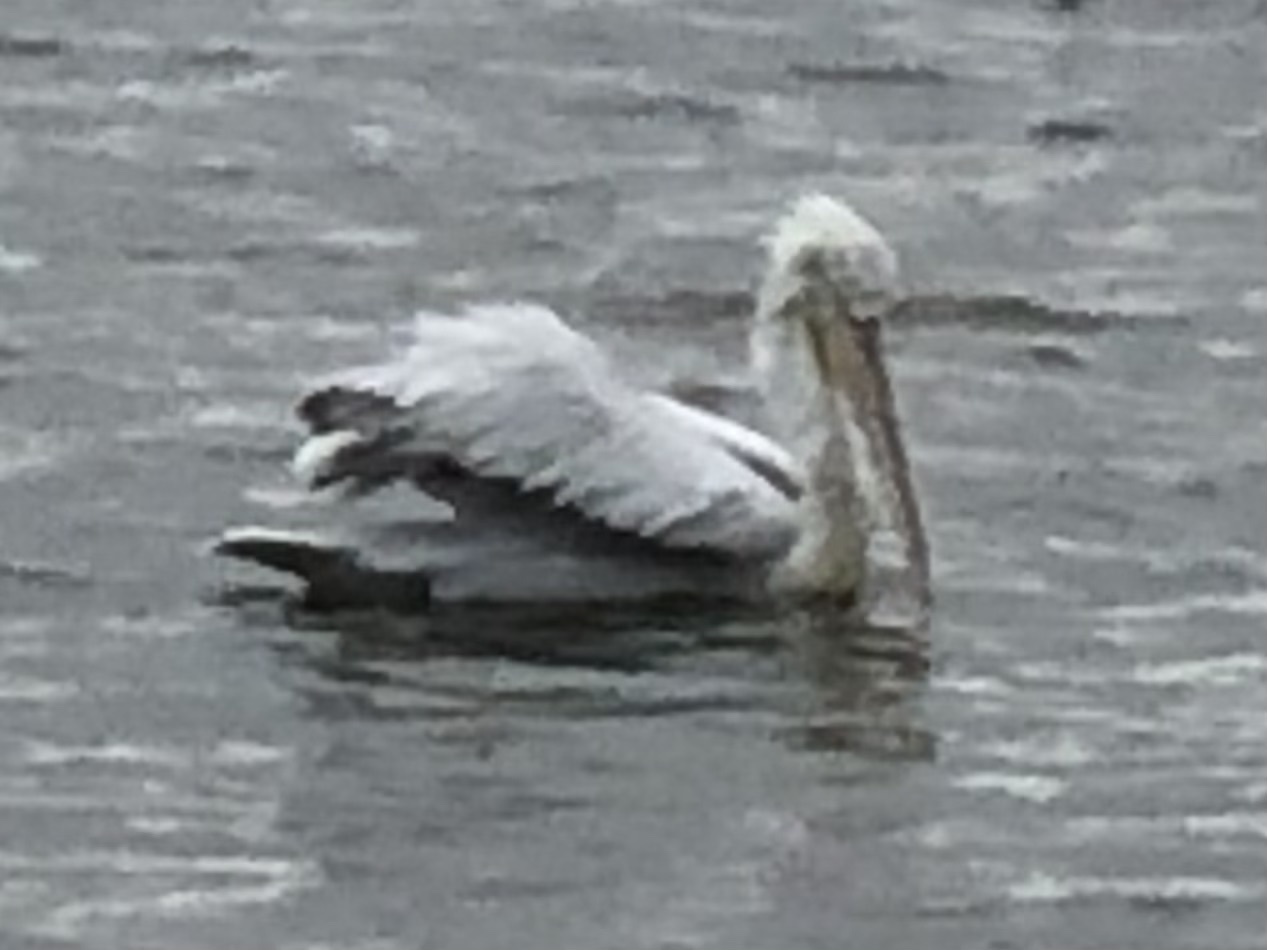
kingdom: Animalia
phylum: Chordata
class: Aves
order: Pelecaniformes
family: Pelecanidae
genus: Pelecanus
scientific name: Pelecanus crispus
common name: Dalmatian pelican
